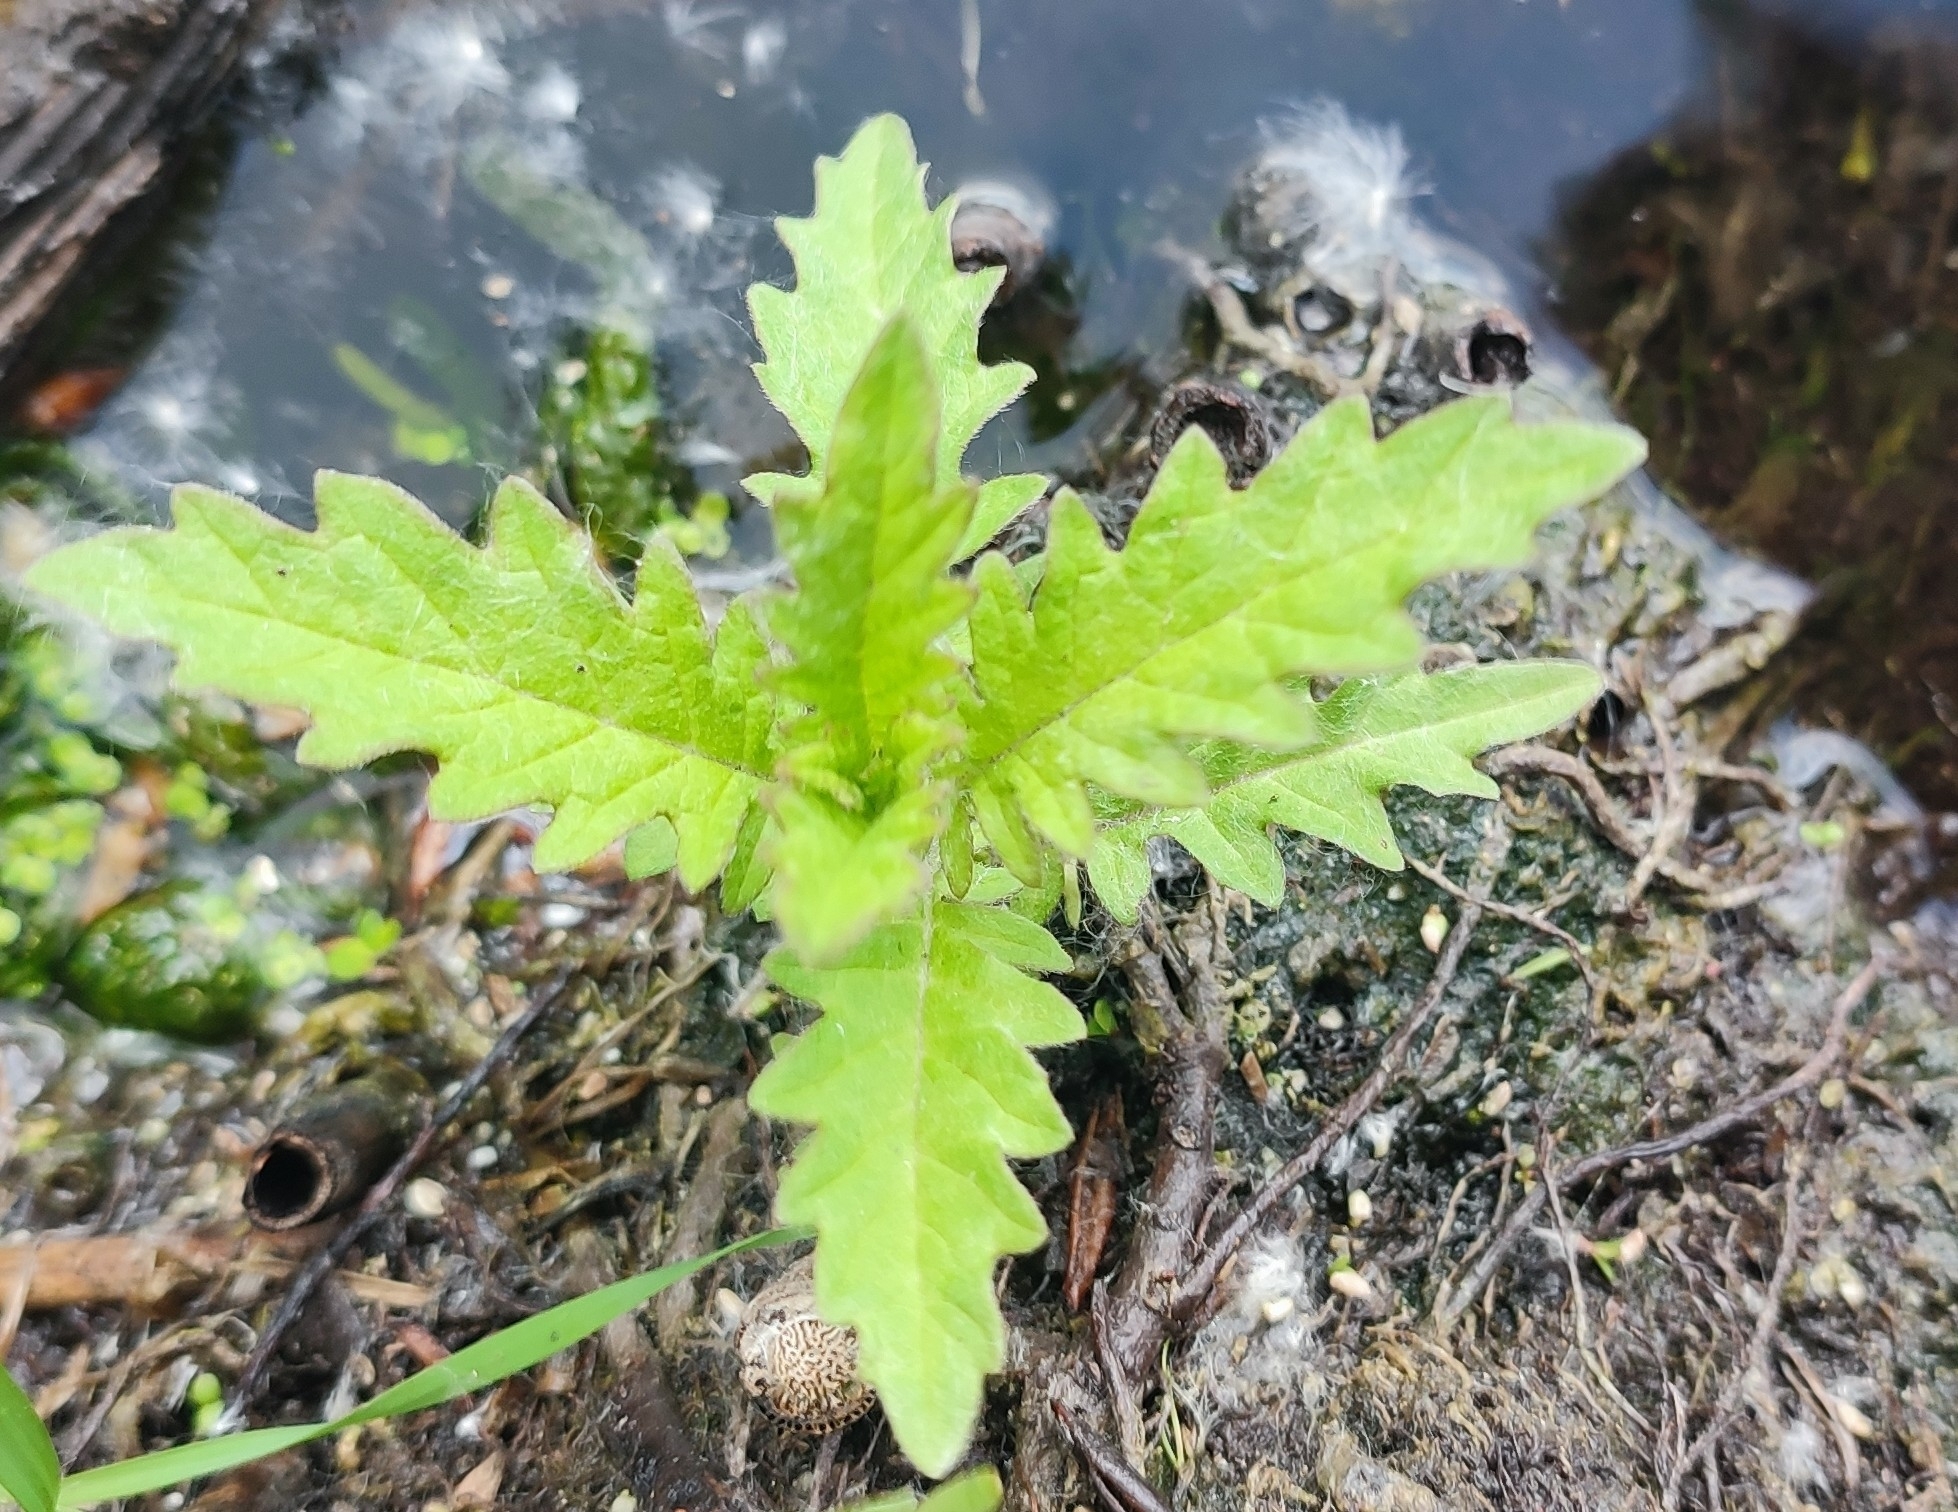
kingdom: Plantae
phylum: Tracheophyta
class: Magnoliopsida
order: Lamiales
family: Lamiaceae
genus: Lycopus
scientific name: Lycopus europaeus
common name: European bugleweed
